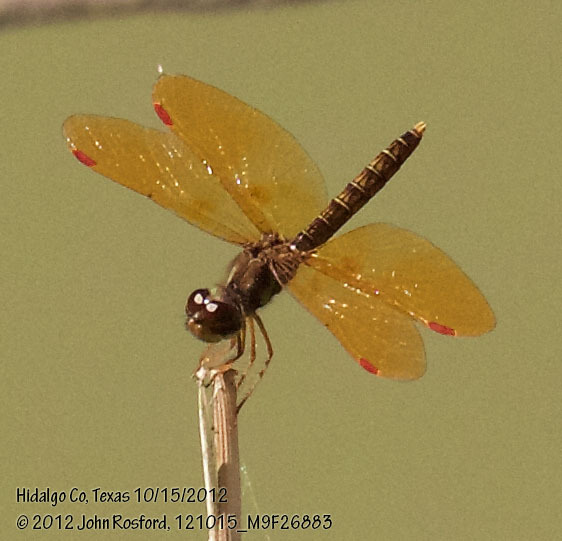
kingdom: Animalia
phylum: Arthropoda
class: Insecta
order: Odonata
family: Libellulidae
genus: Perithemis
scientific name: Perithemis tenera
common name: Eastern amberwing
